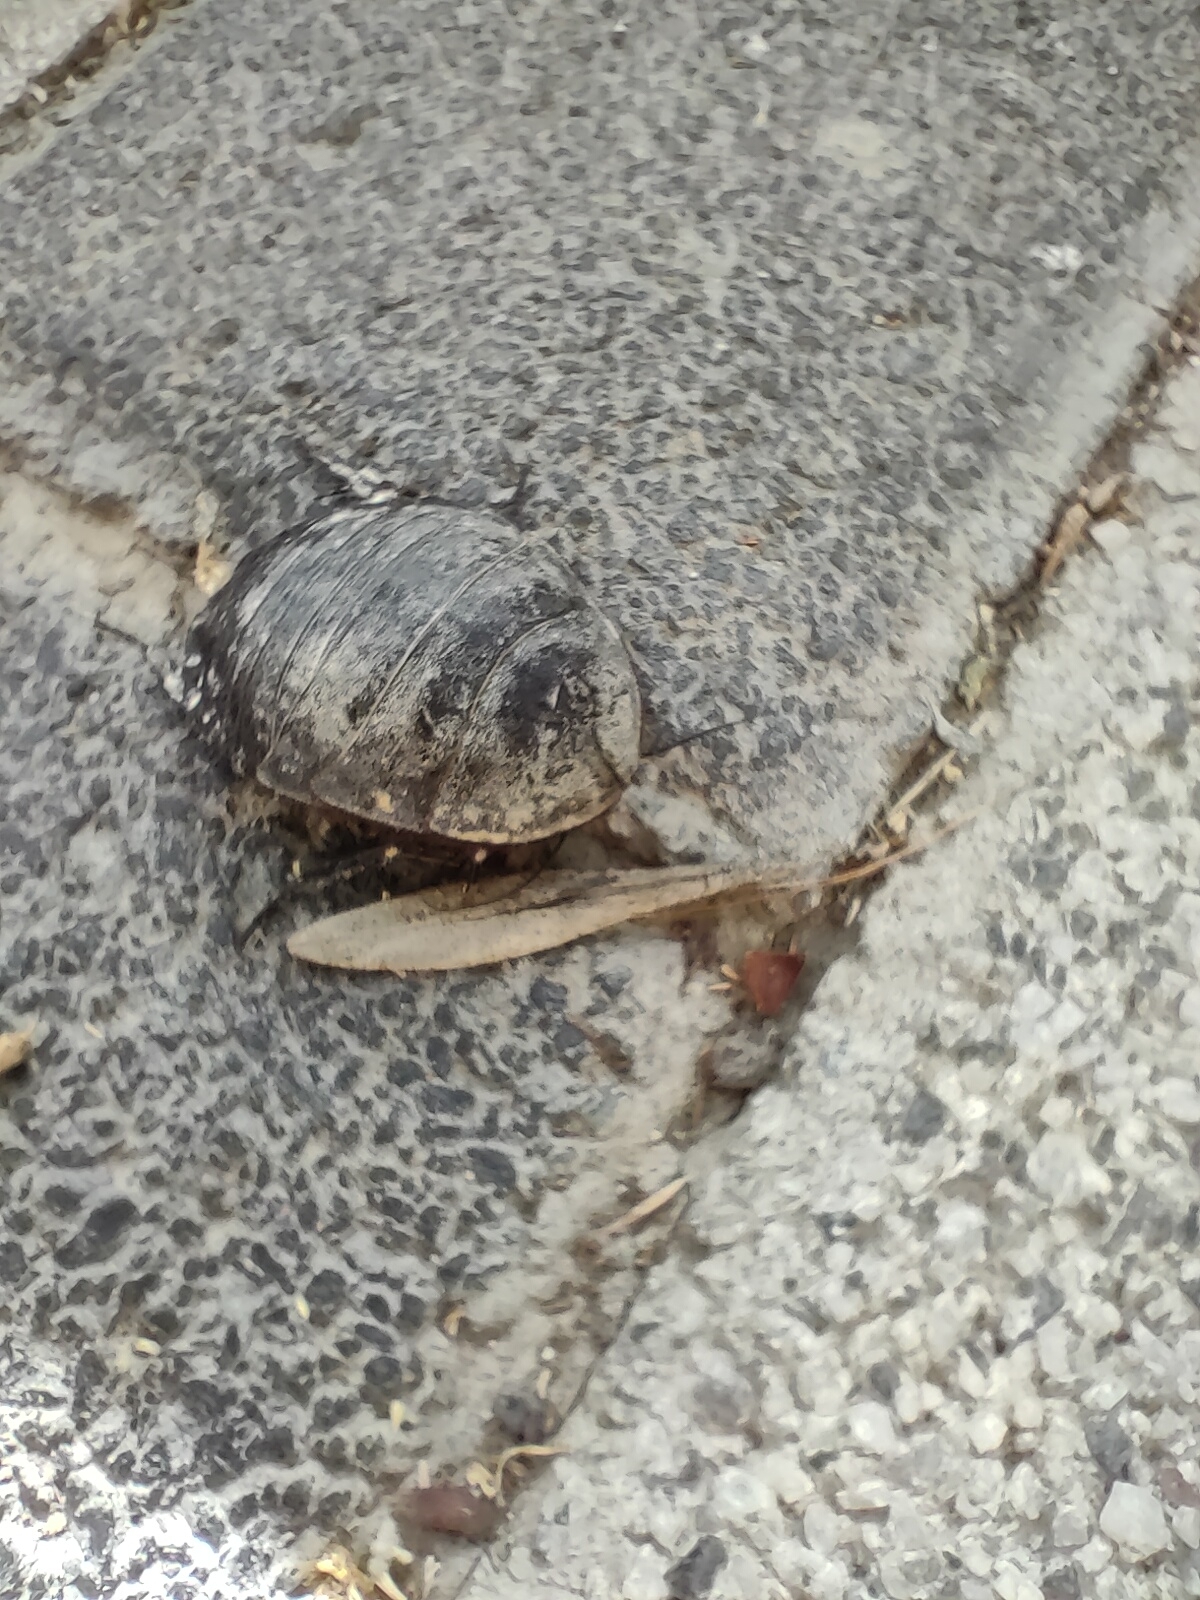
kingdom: Animalia
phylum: Arthropoda
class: Insecta
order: Blattodea
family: Corydiidae
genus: Polyphaga
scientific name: Polyphaga saussurei
